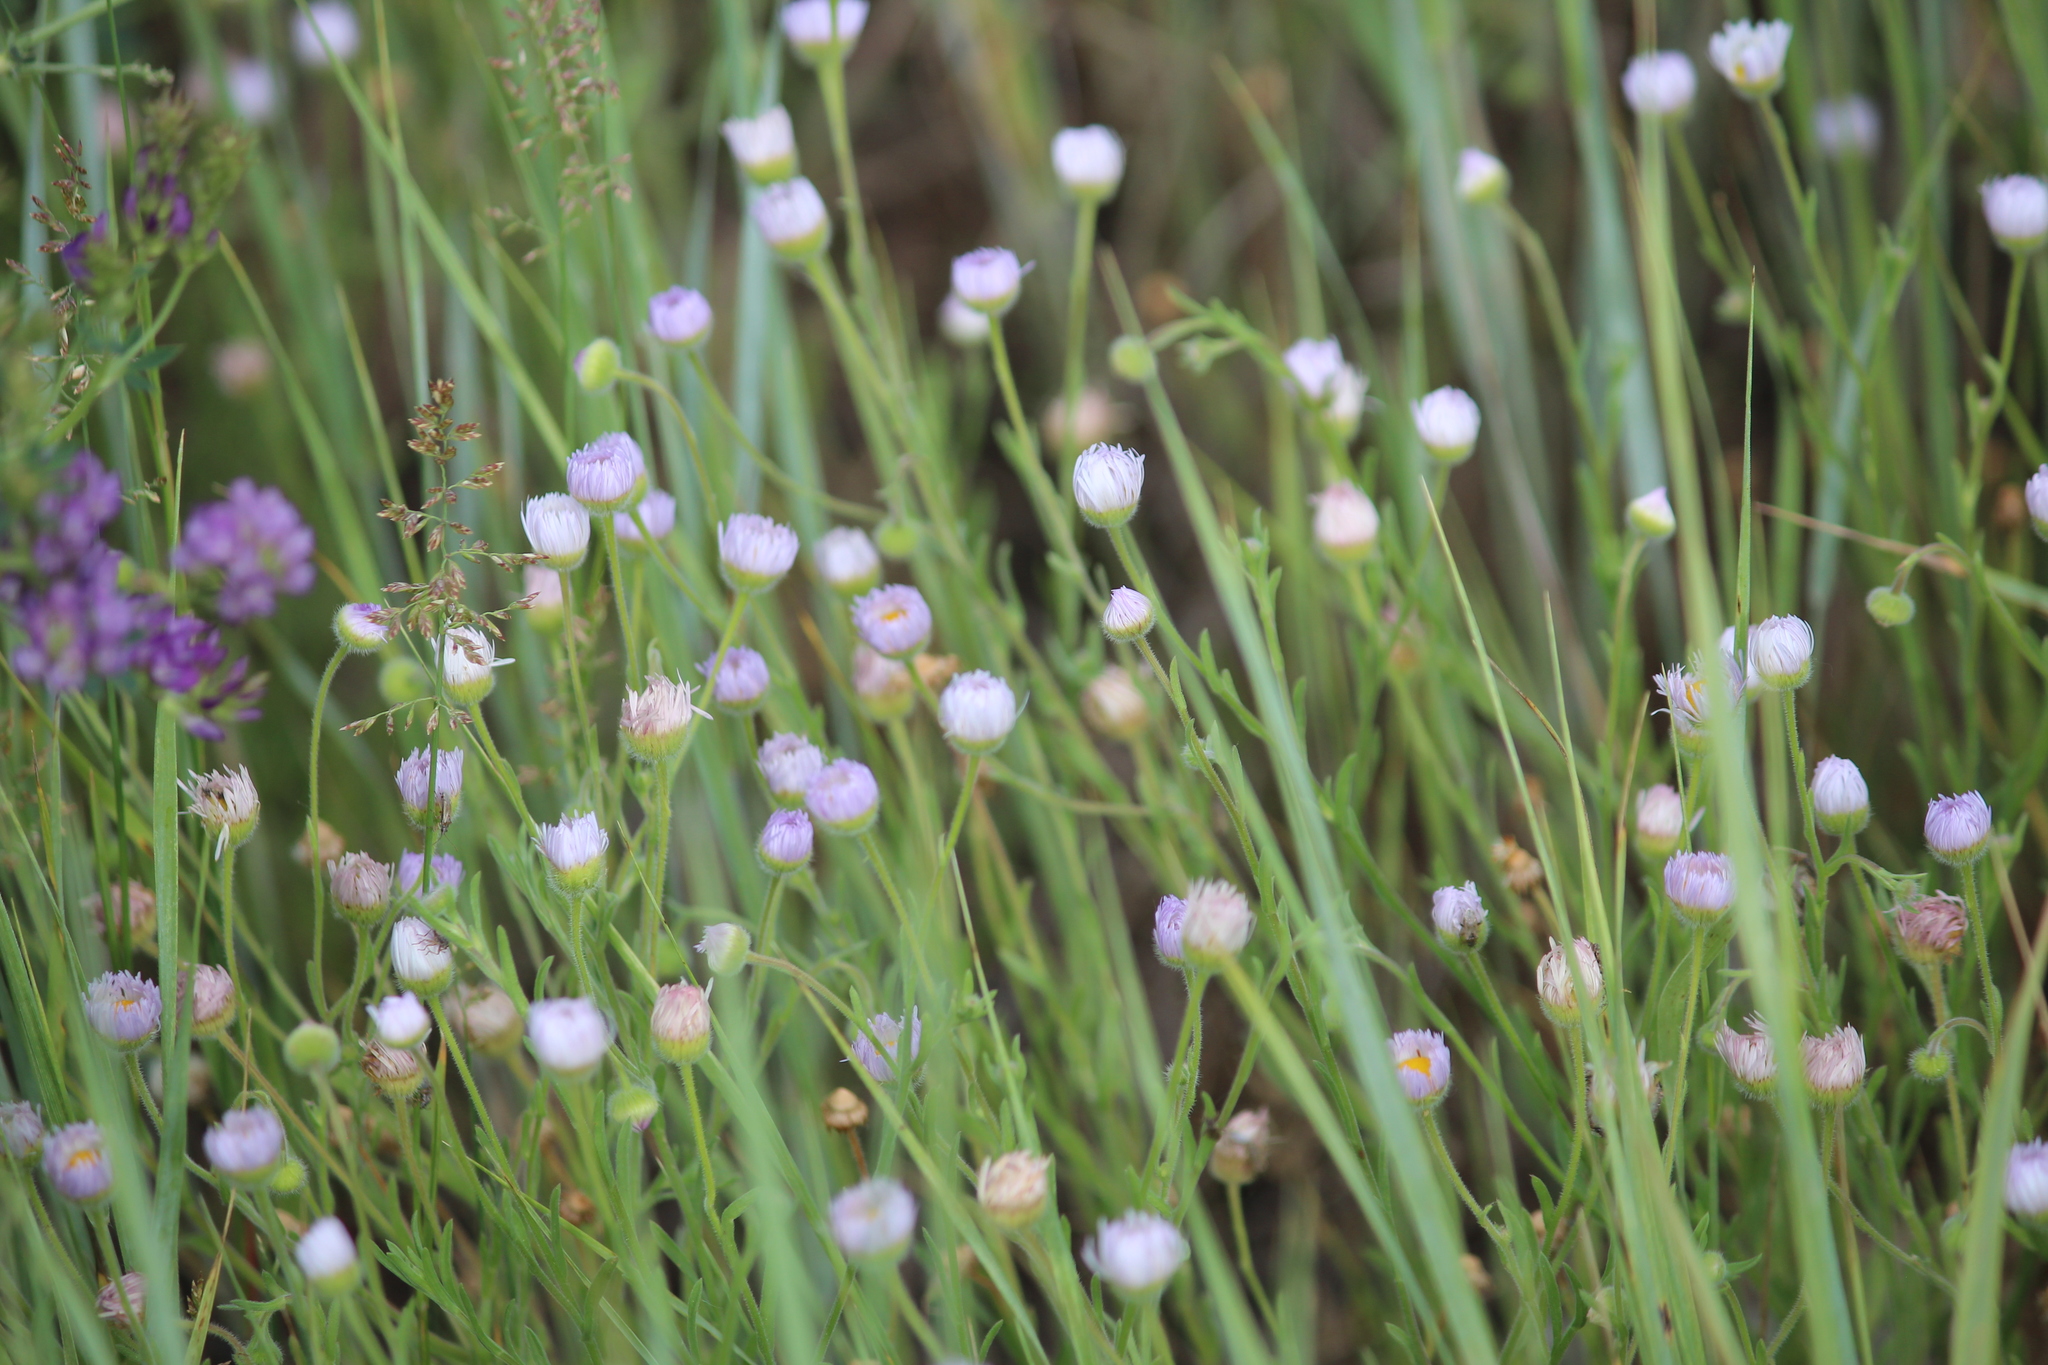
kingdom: Plantae
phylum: Tracheophyta
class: Magnoliopsida
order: Asterales
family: Asteraceae
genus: Erigeron
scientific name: Erigeron divergens
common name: Diffuse fleabane
